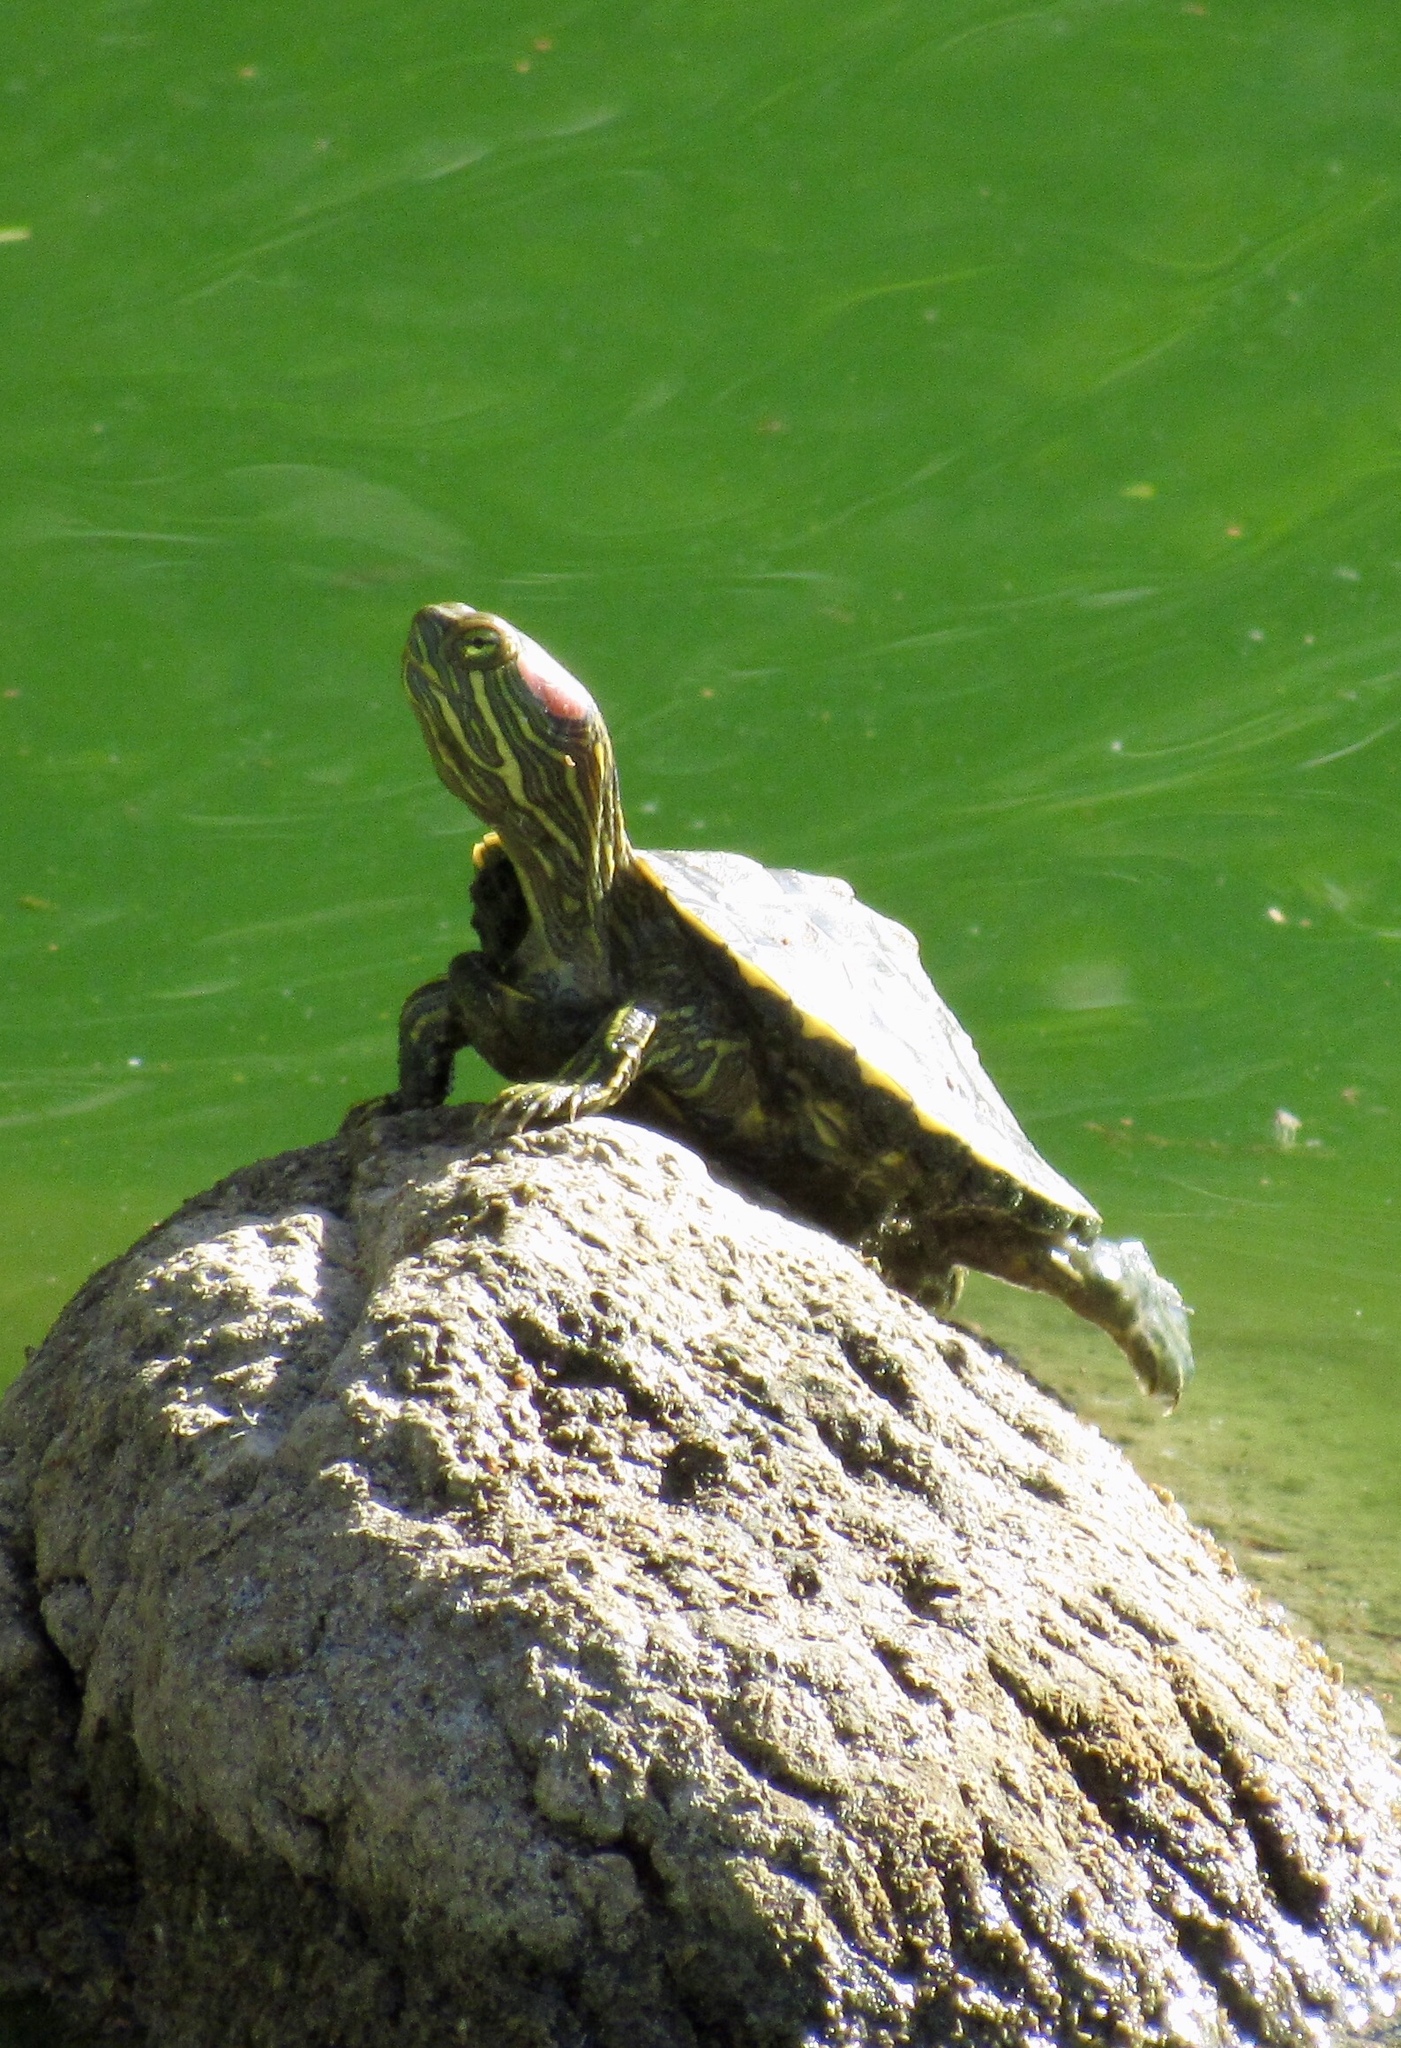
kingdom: Animalia
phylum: Chordata
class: Testudines
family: Emydidae
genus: Trachemys
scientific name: Trachemys scripta
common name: Slider
